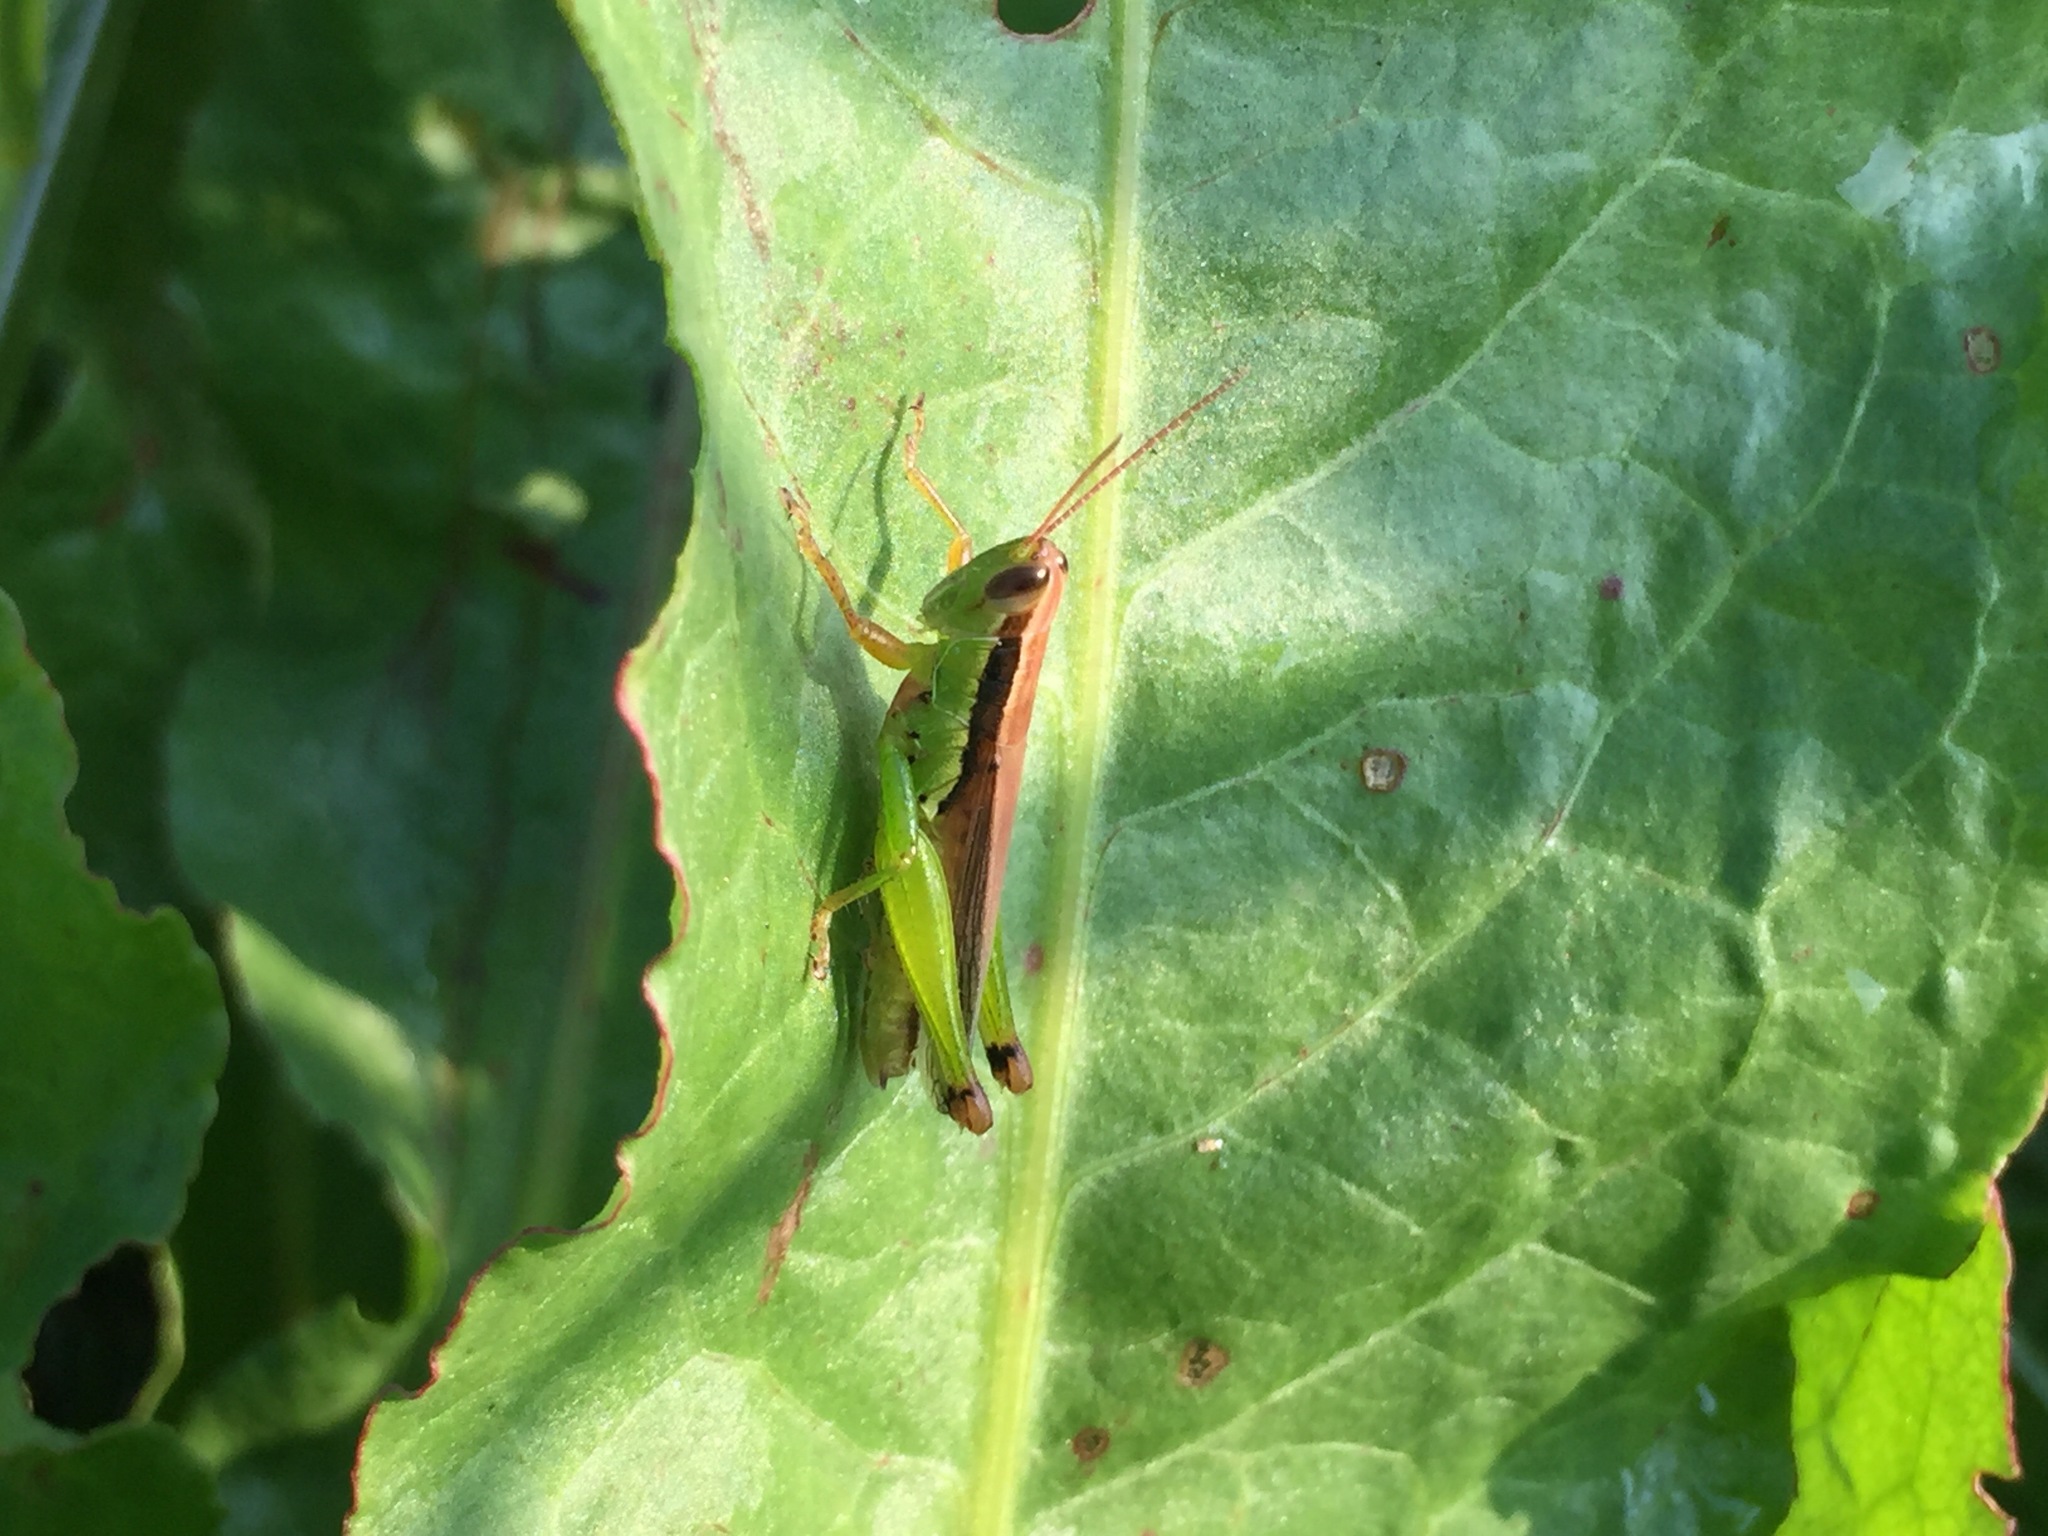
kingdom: Animalia
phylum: Arthropoda
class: Insecta
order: Orthoptera
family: Acrididae
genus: Oxya
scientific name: Oxya chinensis
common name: Small rice grasshopper
